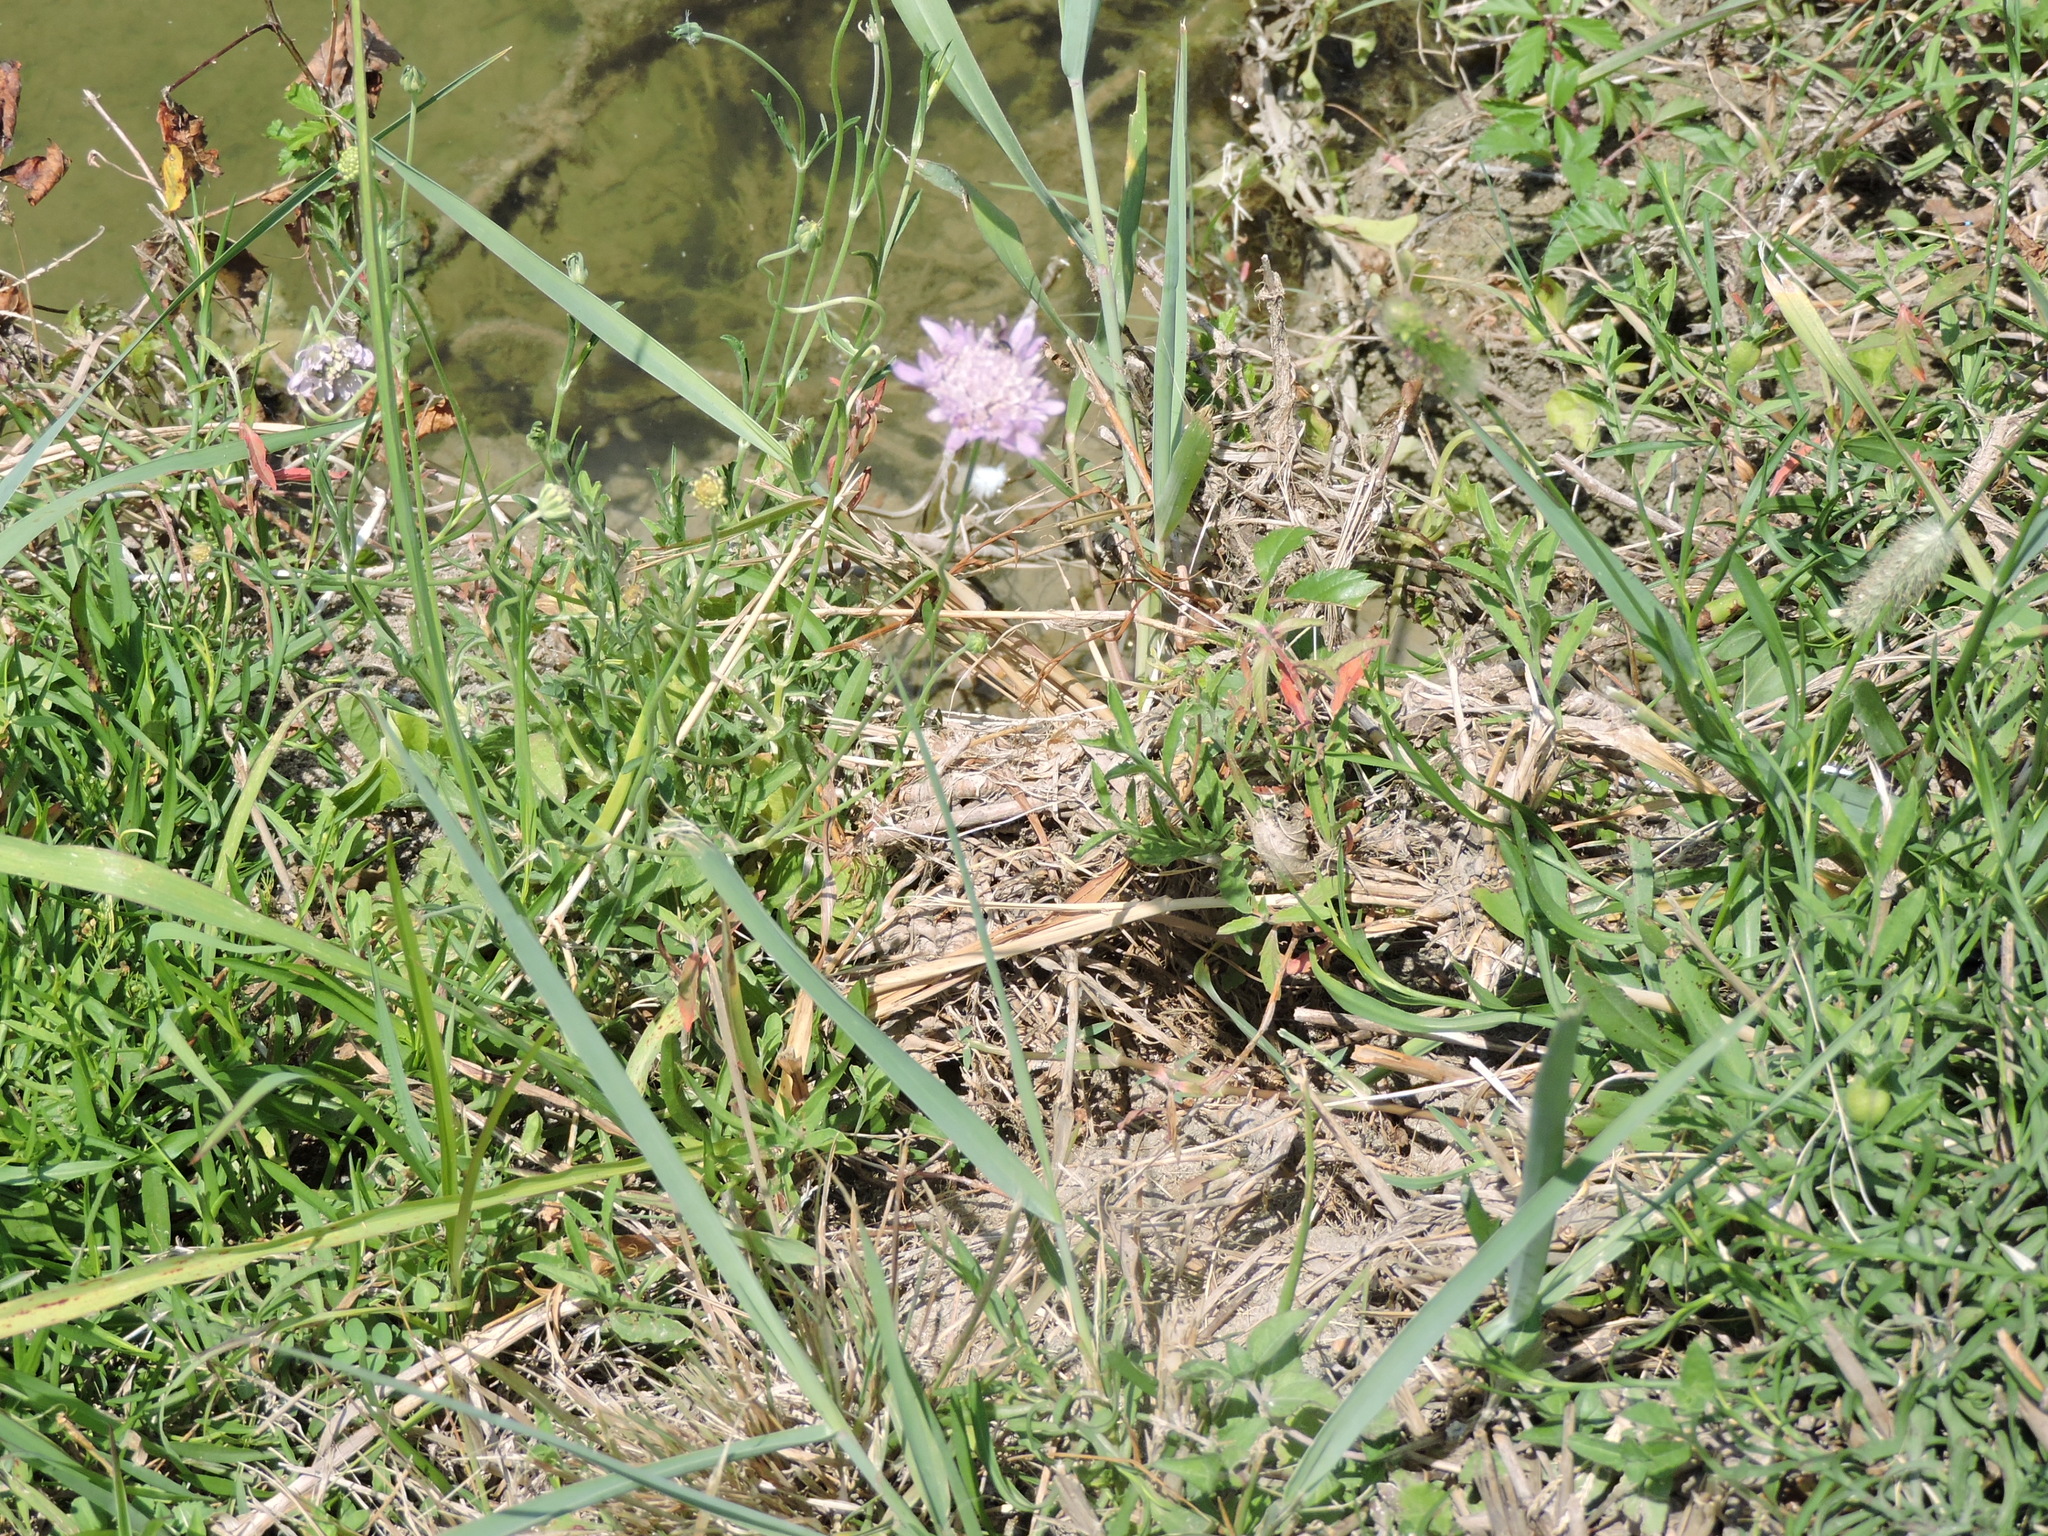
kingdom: Plantae
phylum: Tracheophyta
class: Magnoliopsida
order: Dipsacales
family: Caprifoliaceae
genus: Sixalix
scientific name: Sixalix atropurpurea
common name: Sweet scabious
